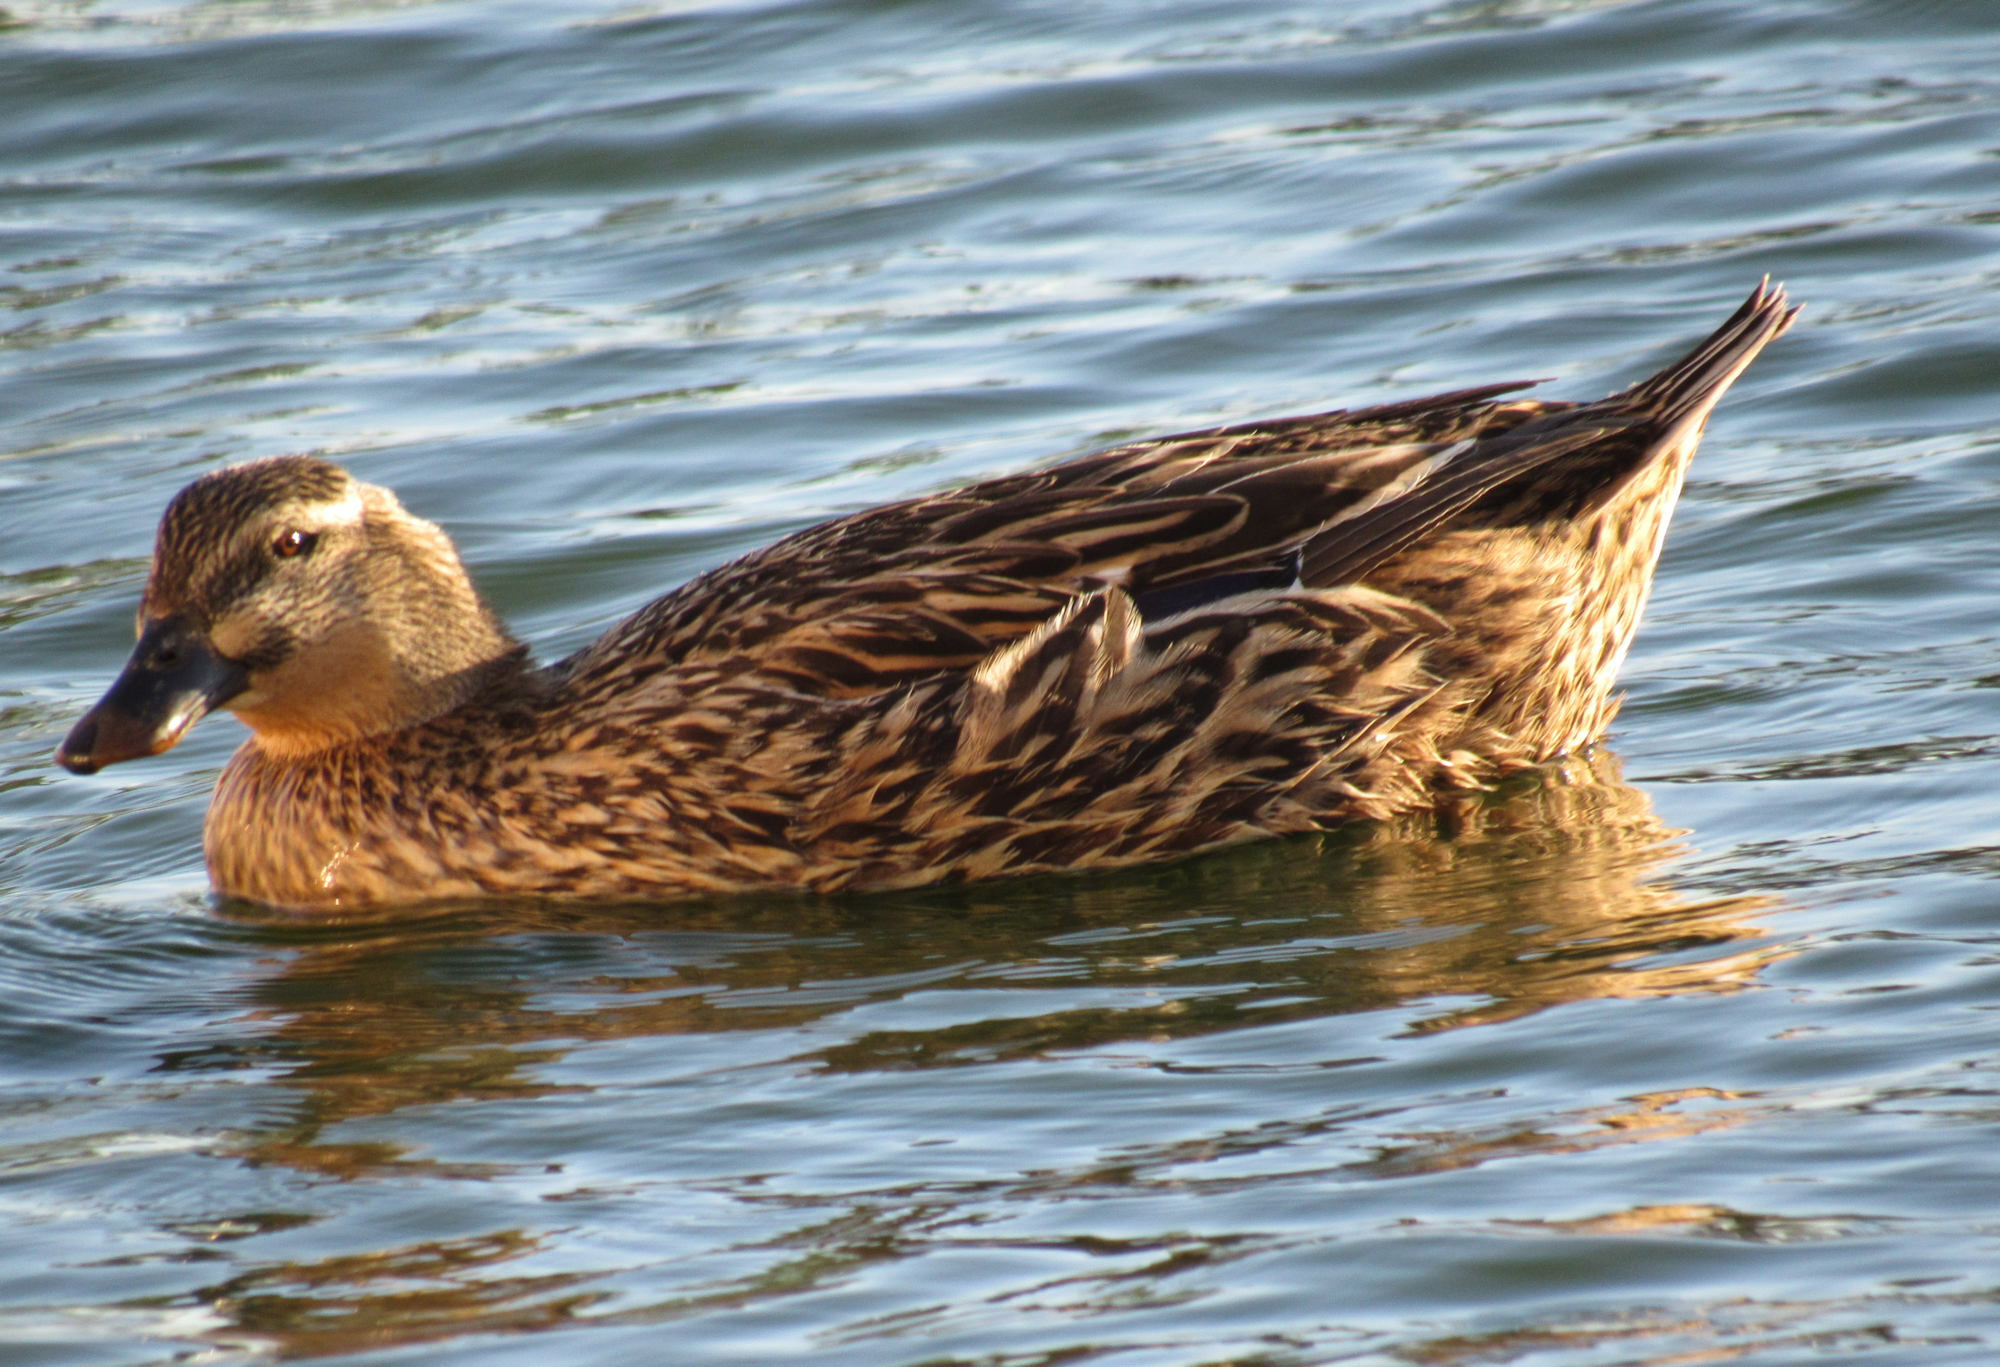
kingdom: Animalia
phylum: Chordata
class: Aves
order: Anseriformes
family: Anatidae
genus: Anas
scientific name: Anas platyrhynchos
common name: Mallard
